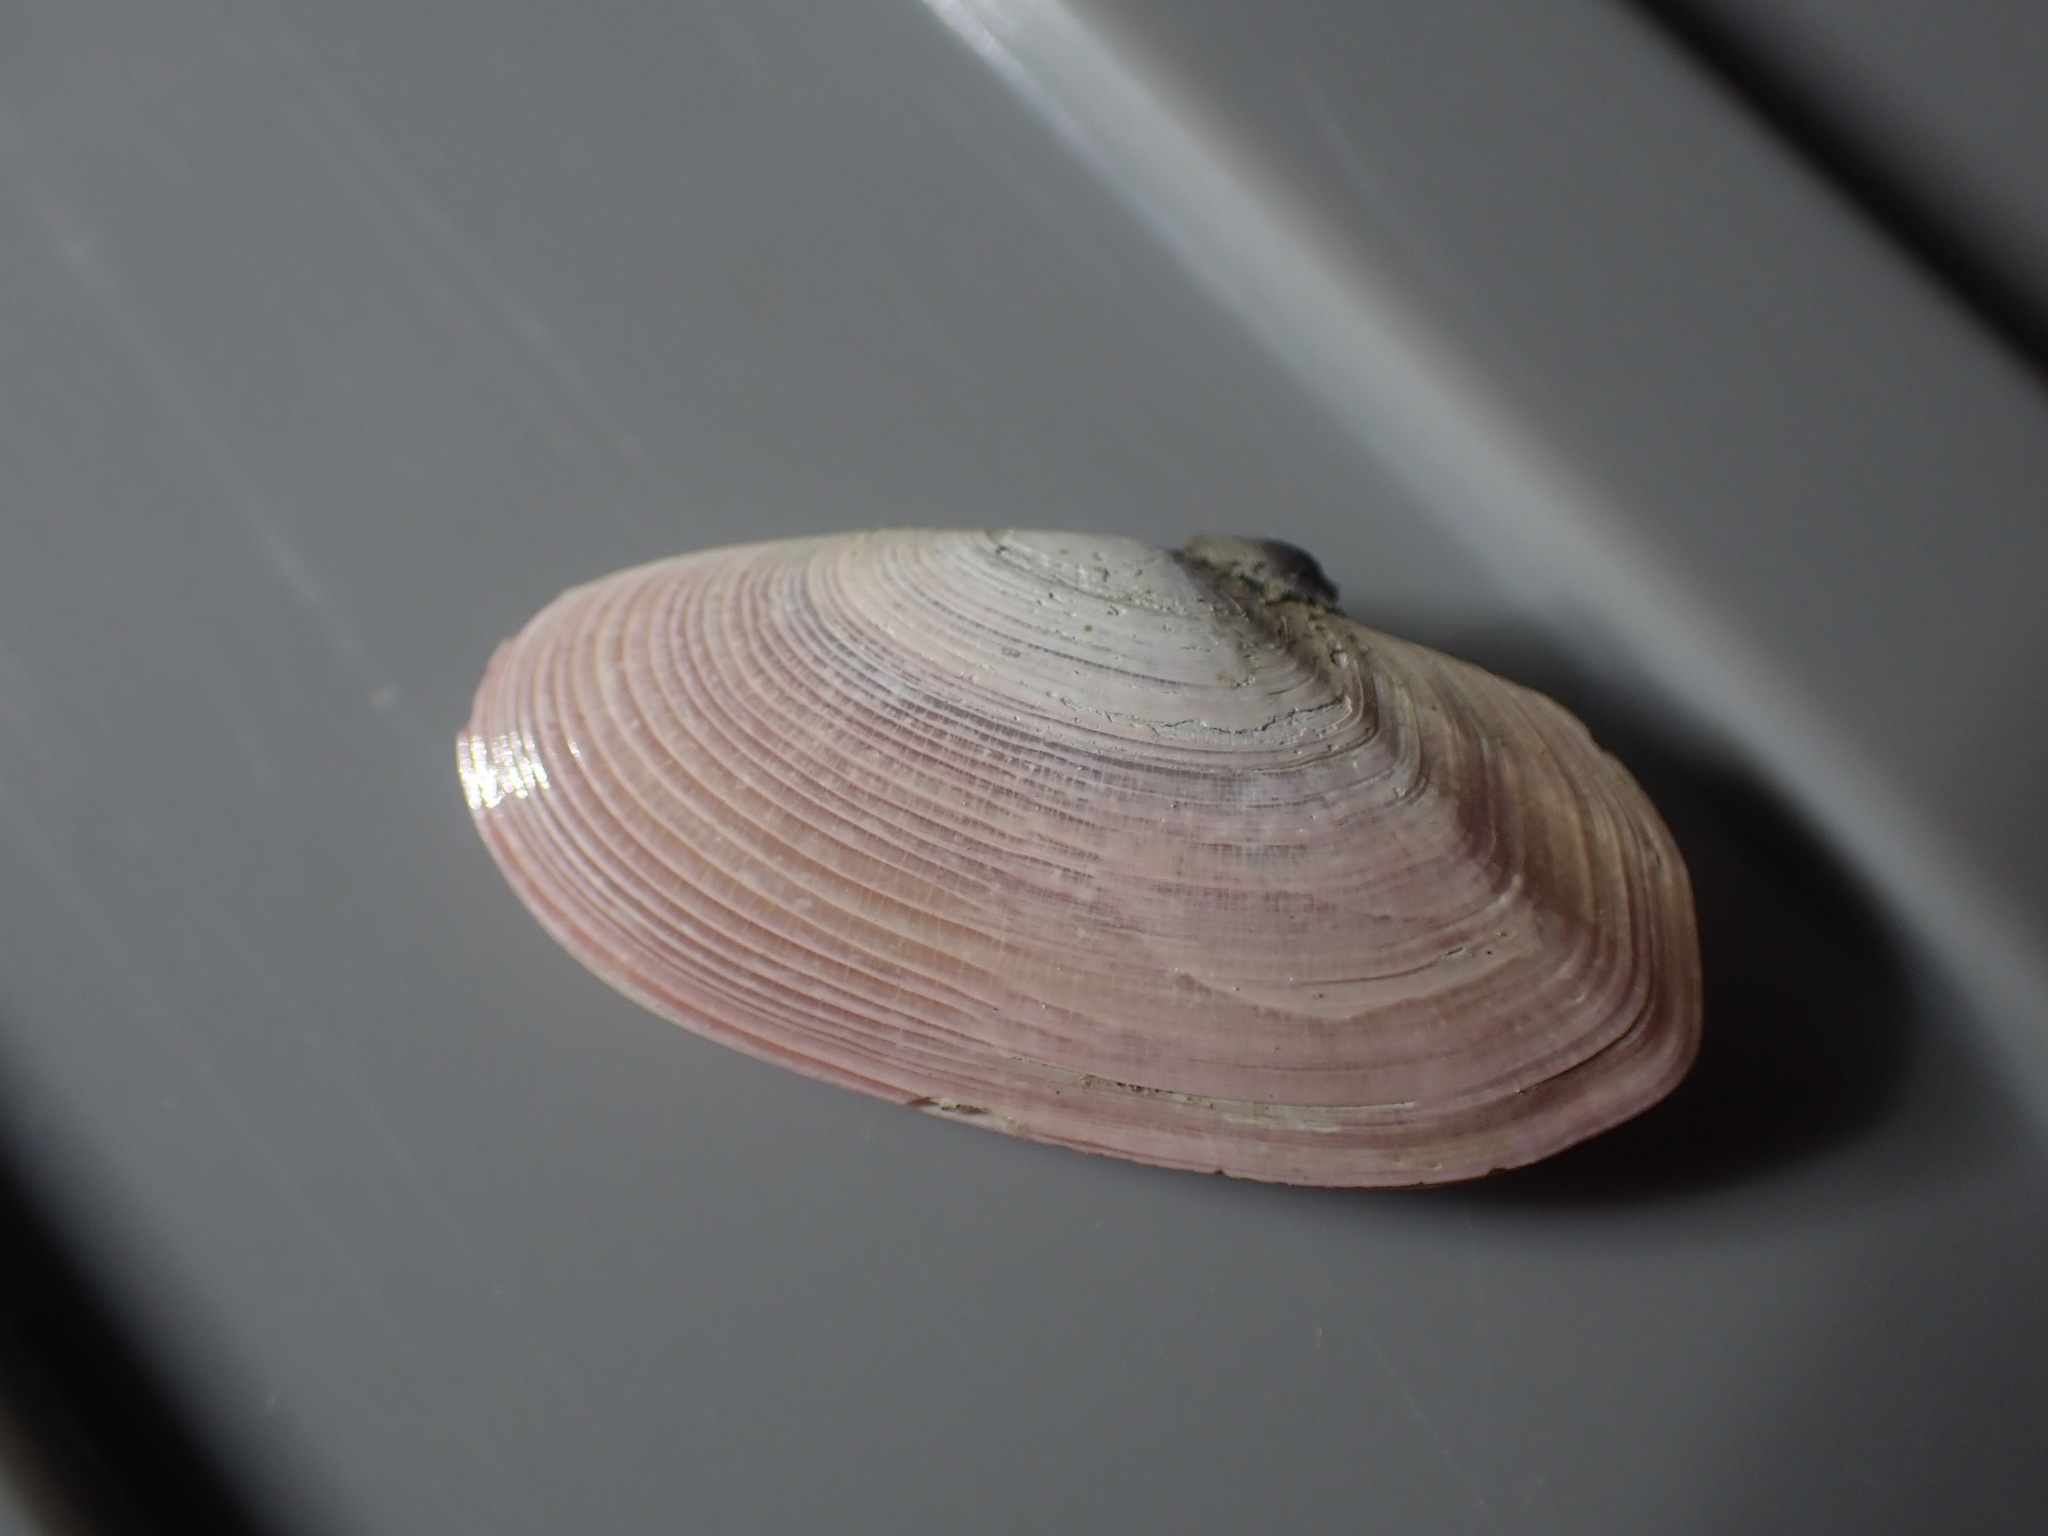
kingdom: Animalia
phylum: Mollusca
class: Bivalvia
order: Cardiida
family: Psammobiidae
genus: Gari
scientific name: Gari lineolata
